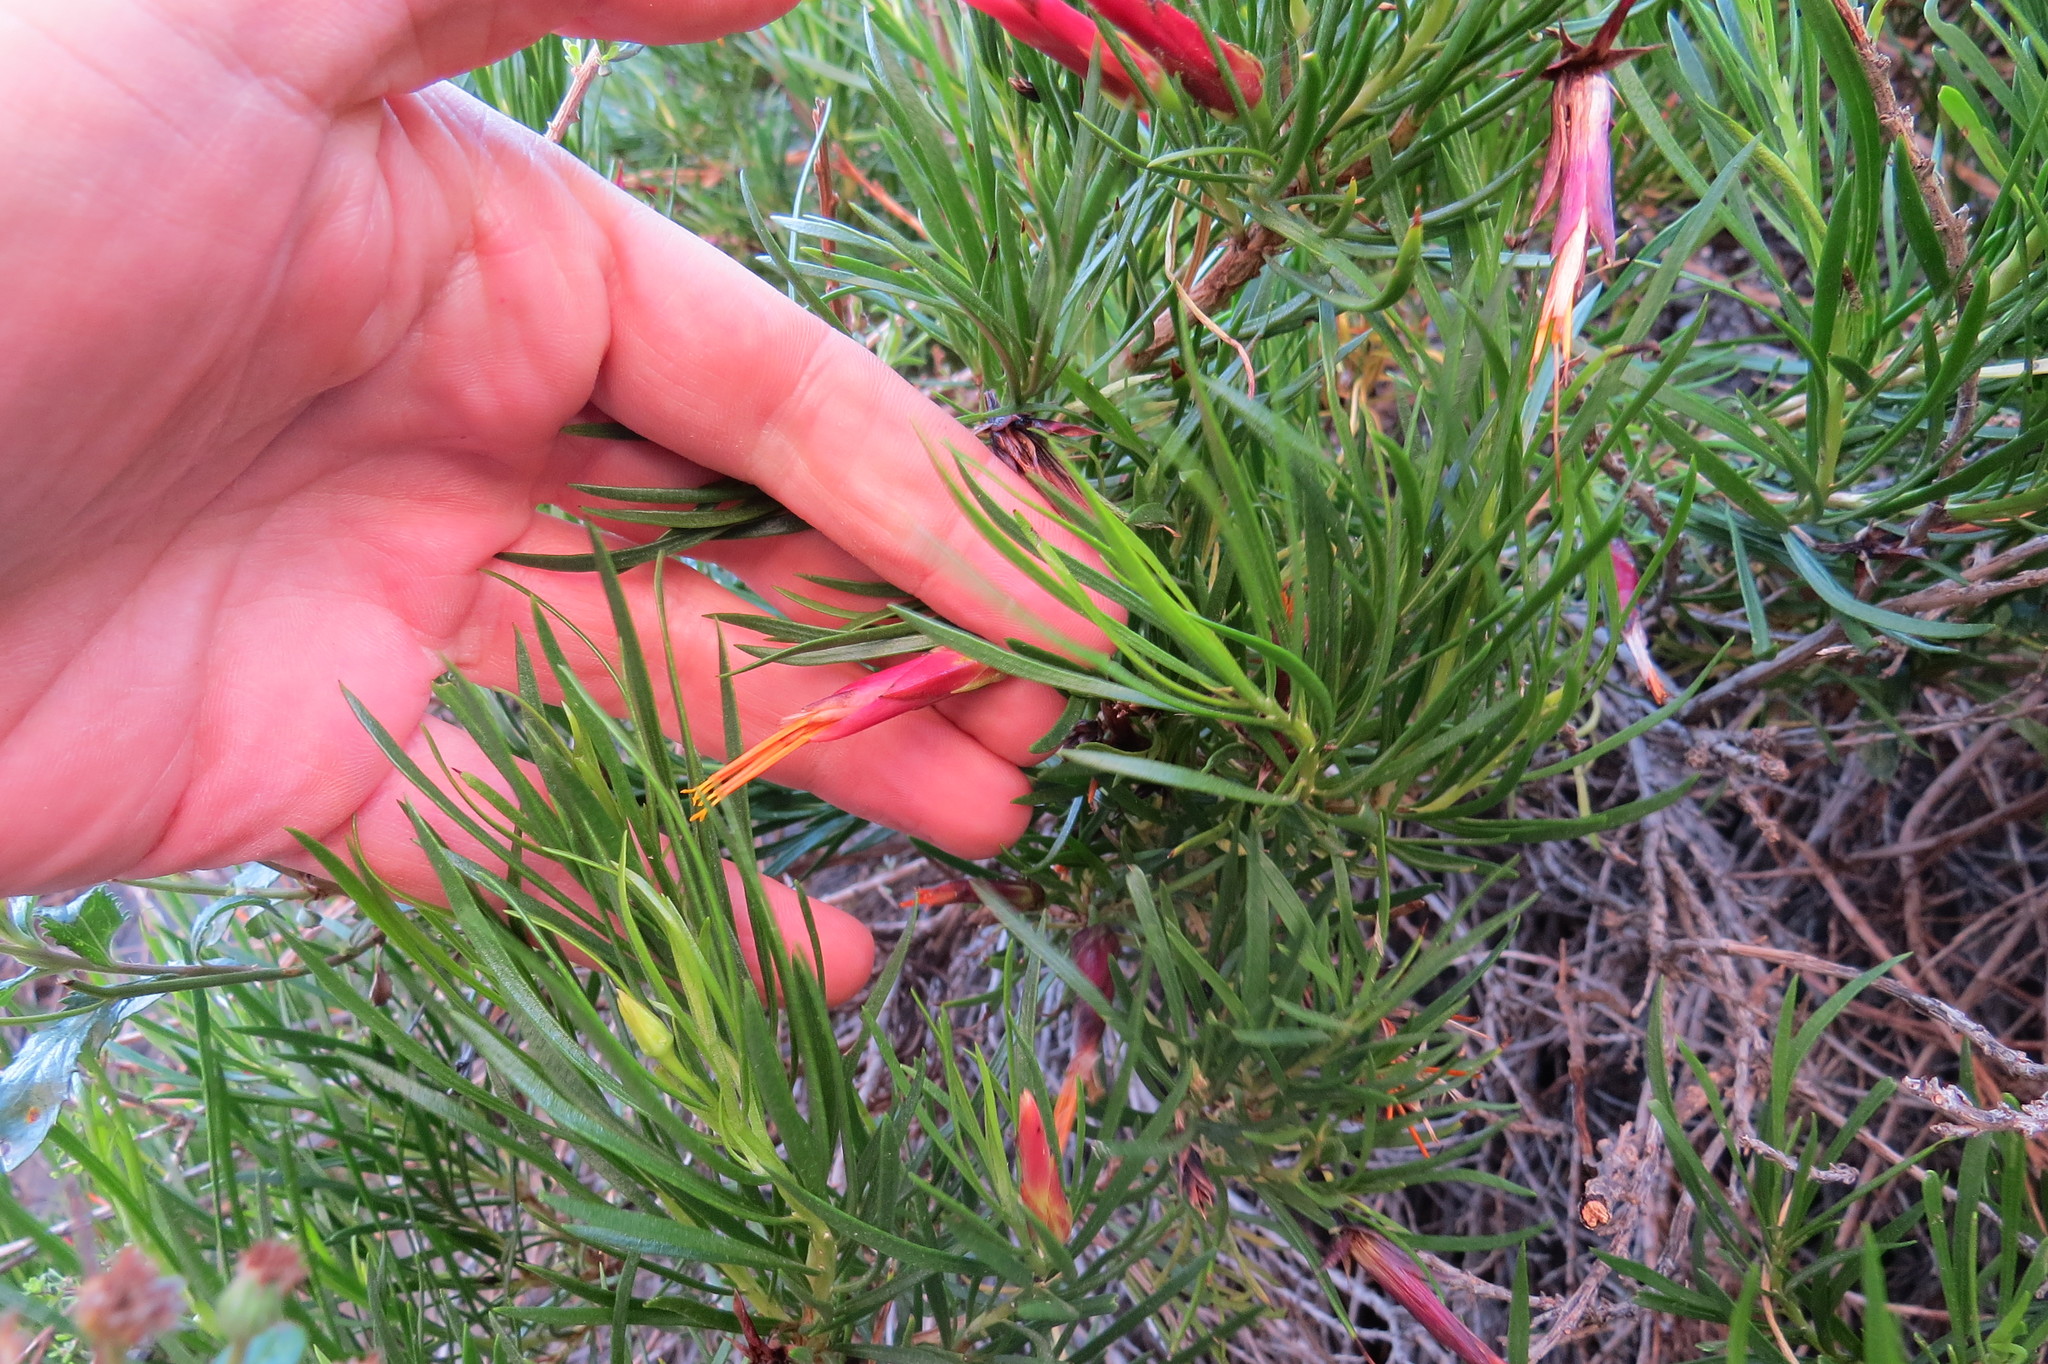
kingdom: Plantae
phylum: Tracheophyta
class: Magnoliopsida
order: Asterales
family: Asteraceae
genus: Mutisia
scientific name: Mutisia linifolia
